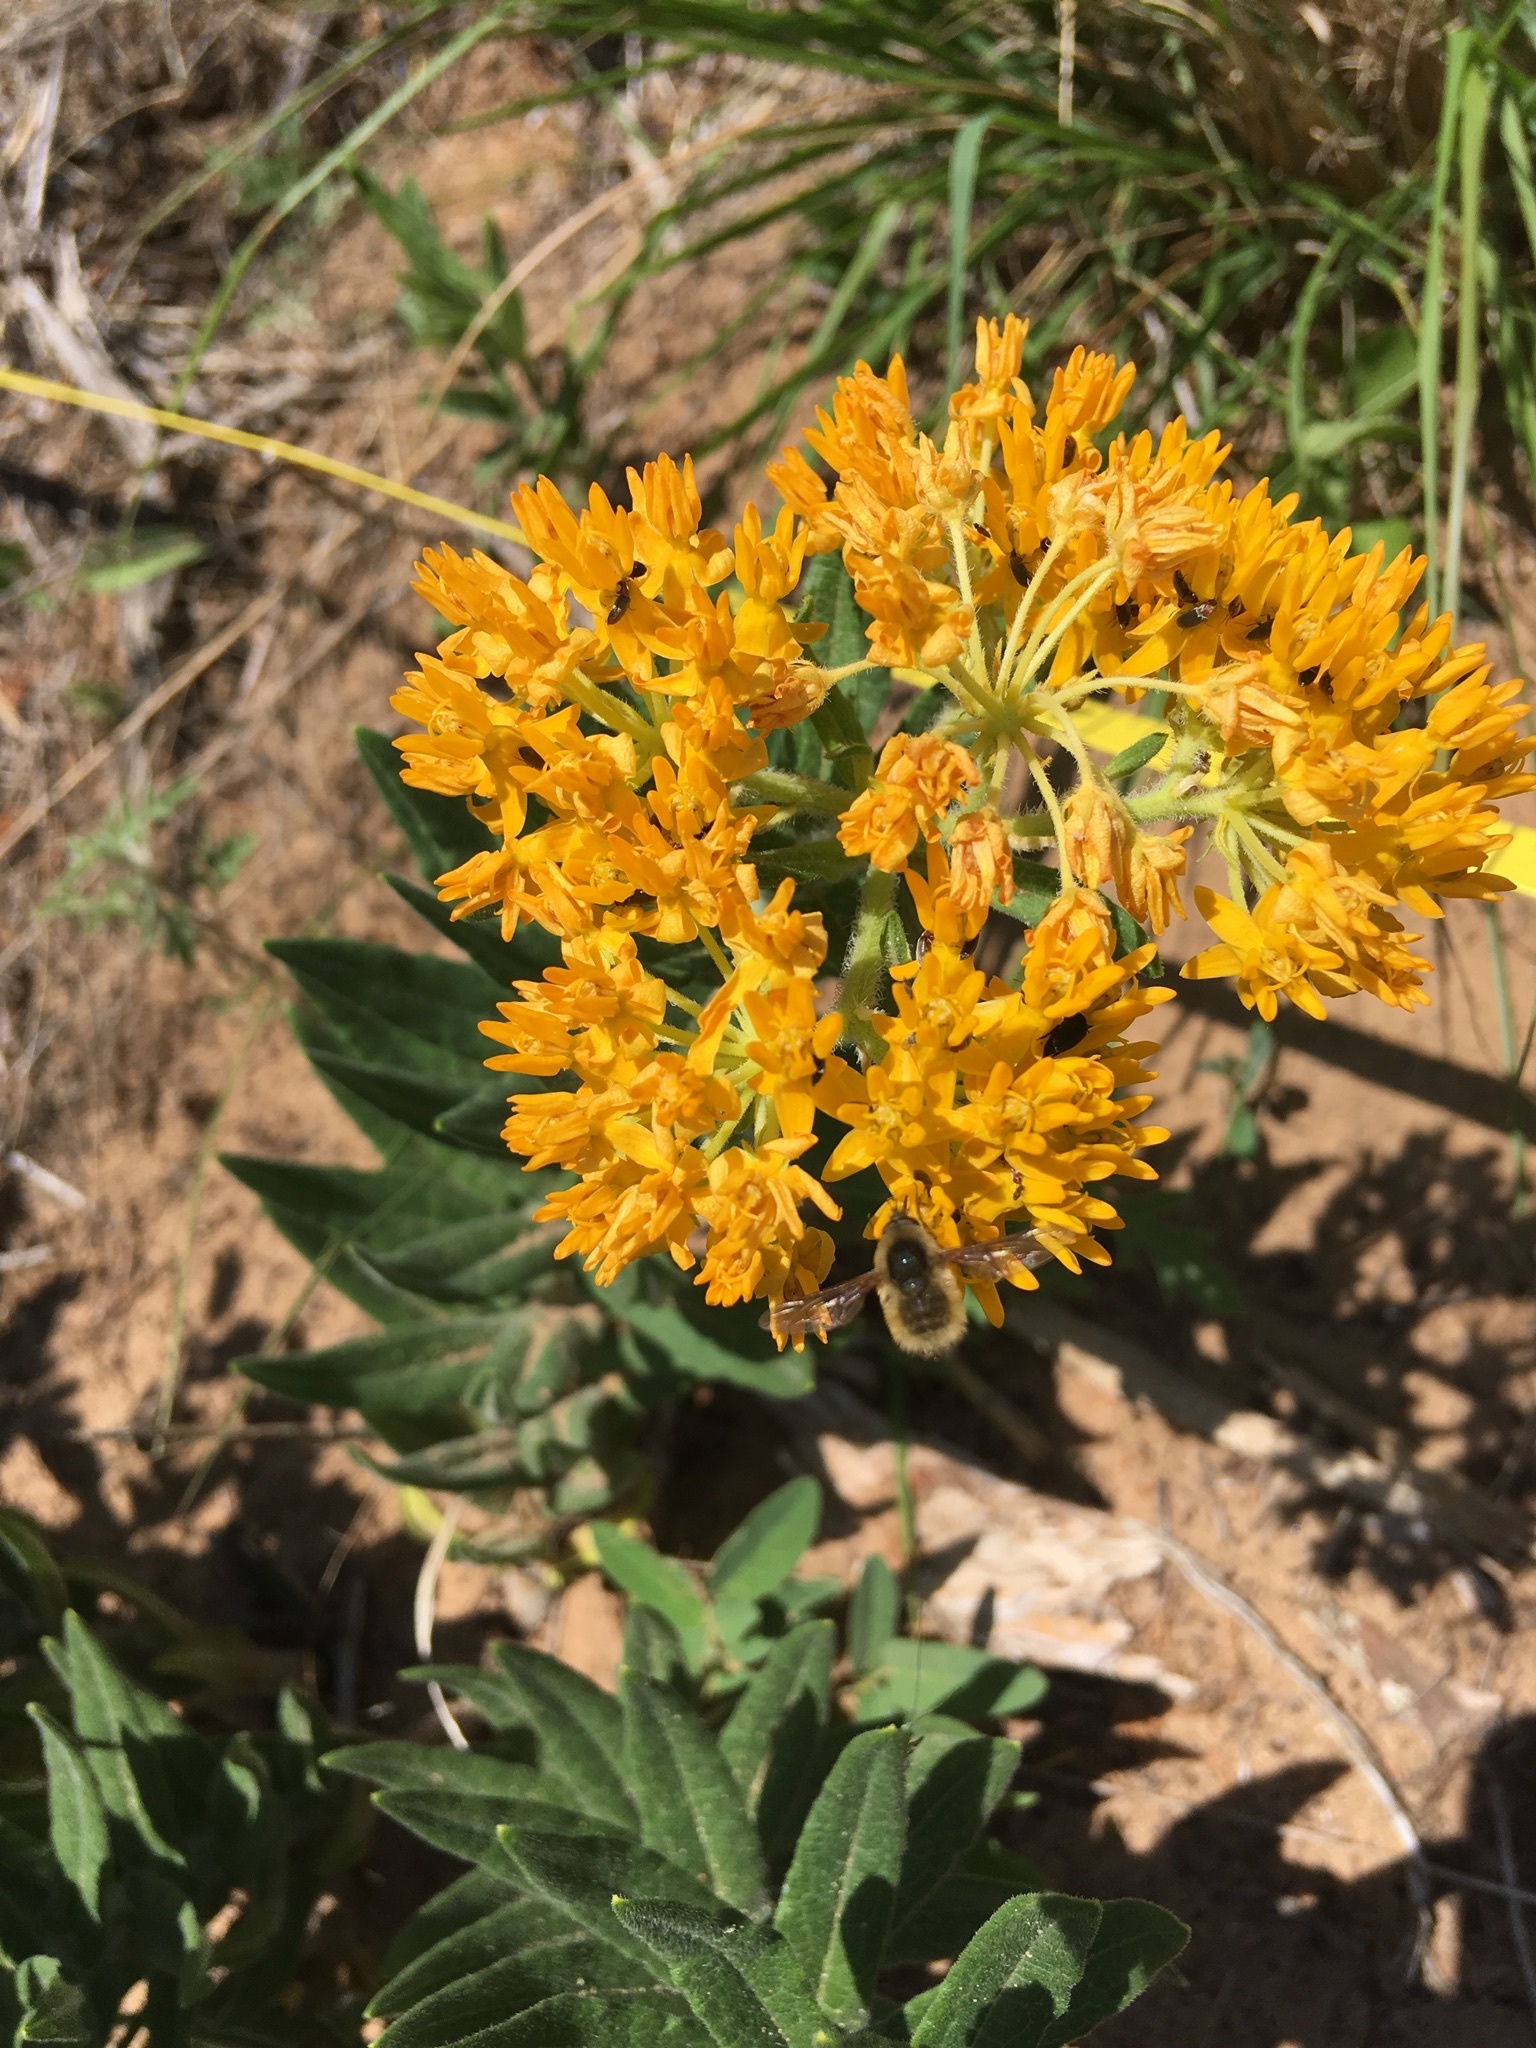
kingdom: Plantae
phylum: Tracheophyta
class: Magnoliopsida
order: Gentianales
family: Apocynaceae
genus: Asclepias
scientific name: Asclepias tuberosa
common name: Butterfly milkweed
